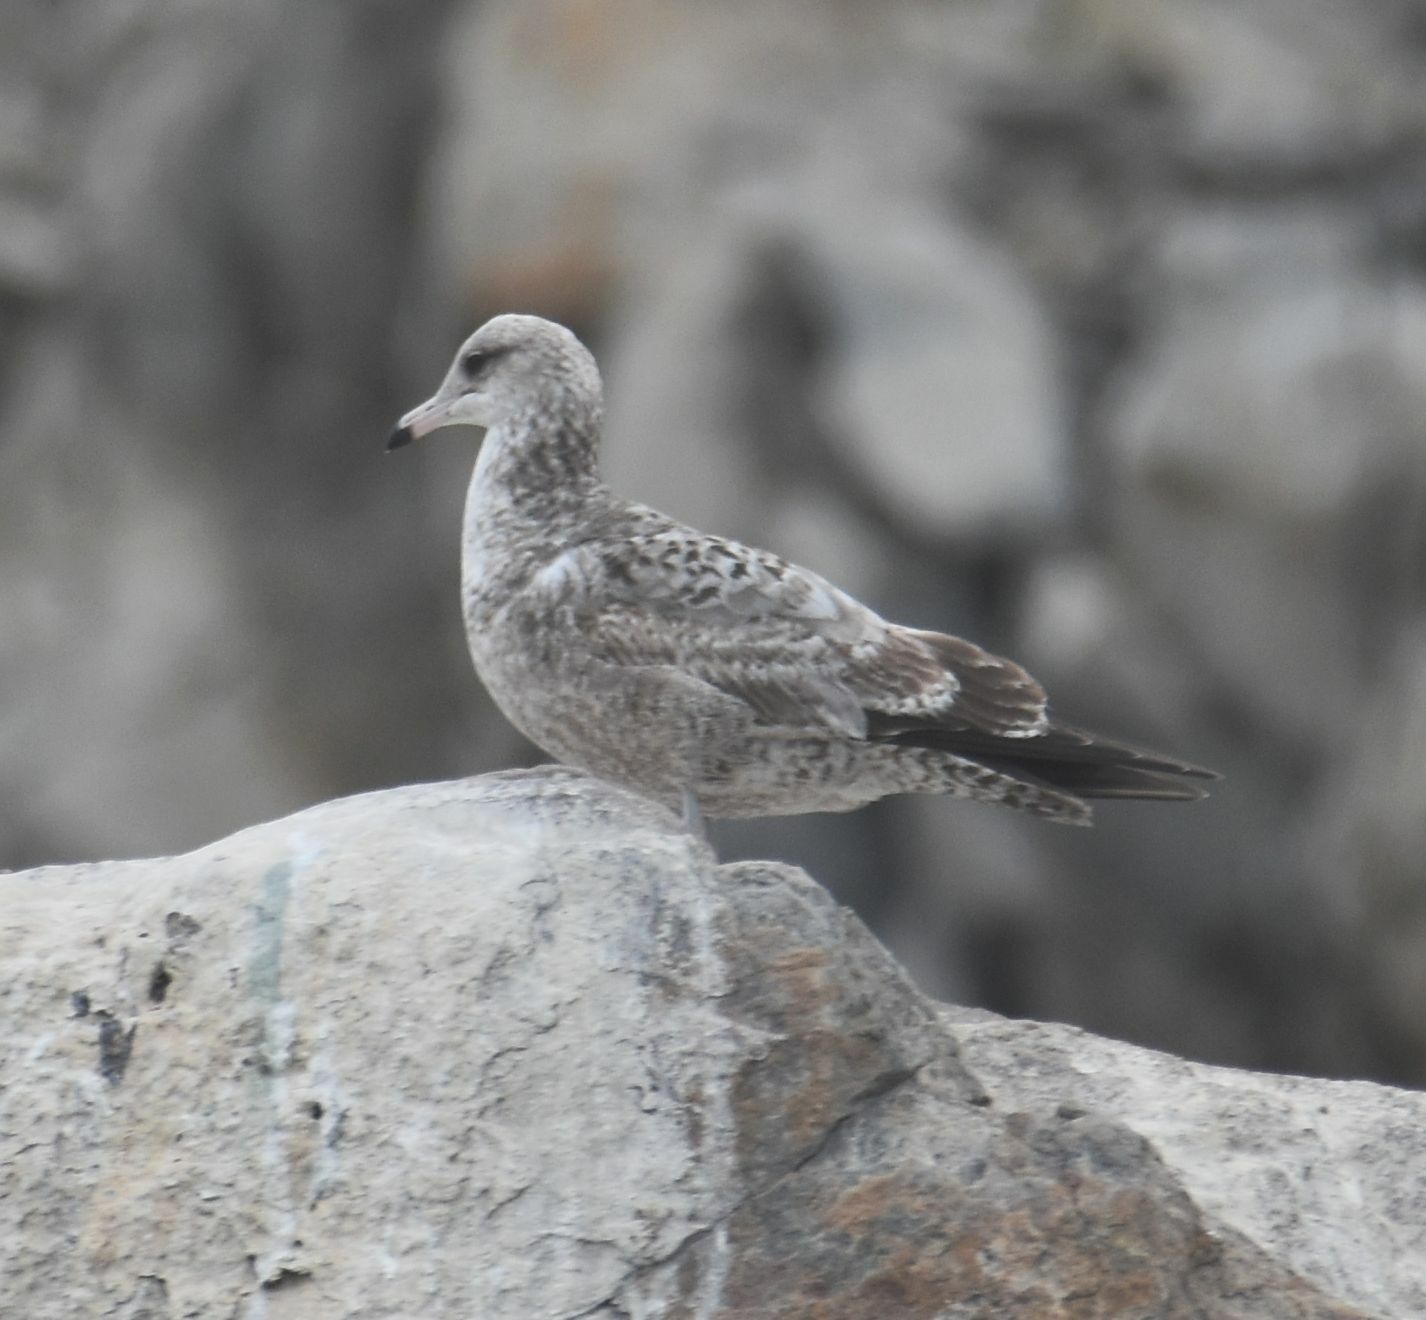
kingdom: Animalia
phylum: Chordata
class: Aves
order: Charadriiformes
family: Laridae
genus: Larus
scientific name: Larus californicus
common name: California gull
